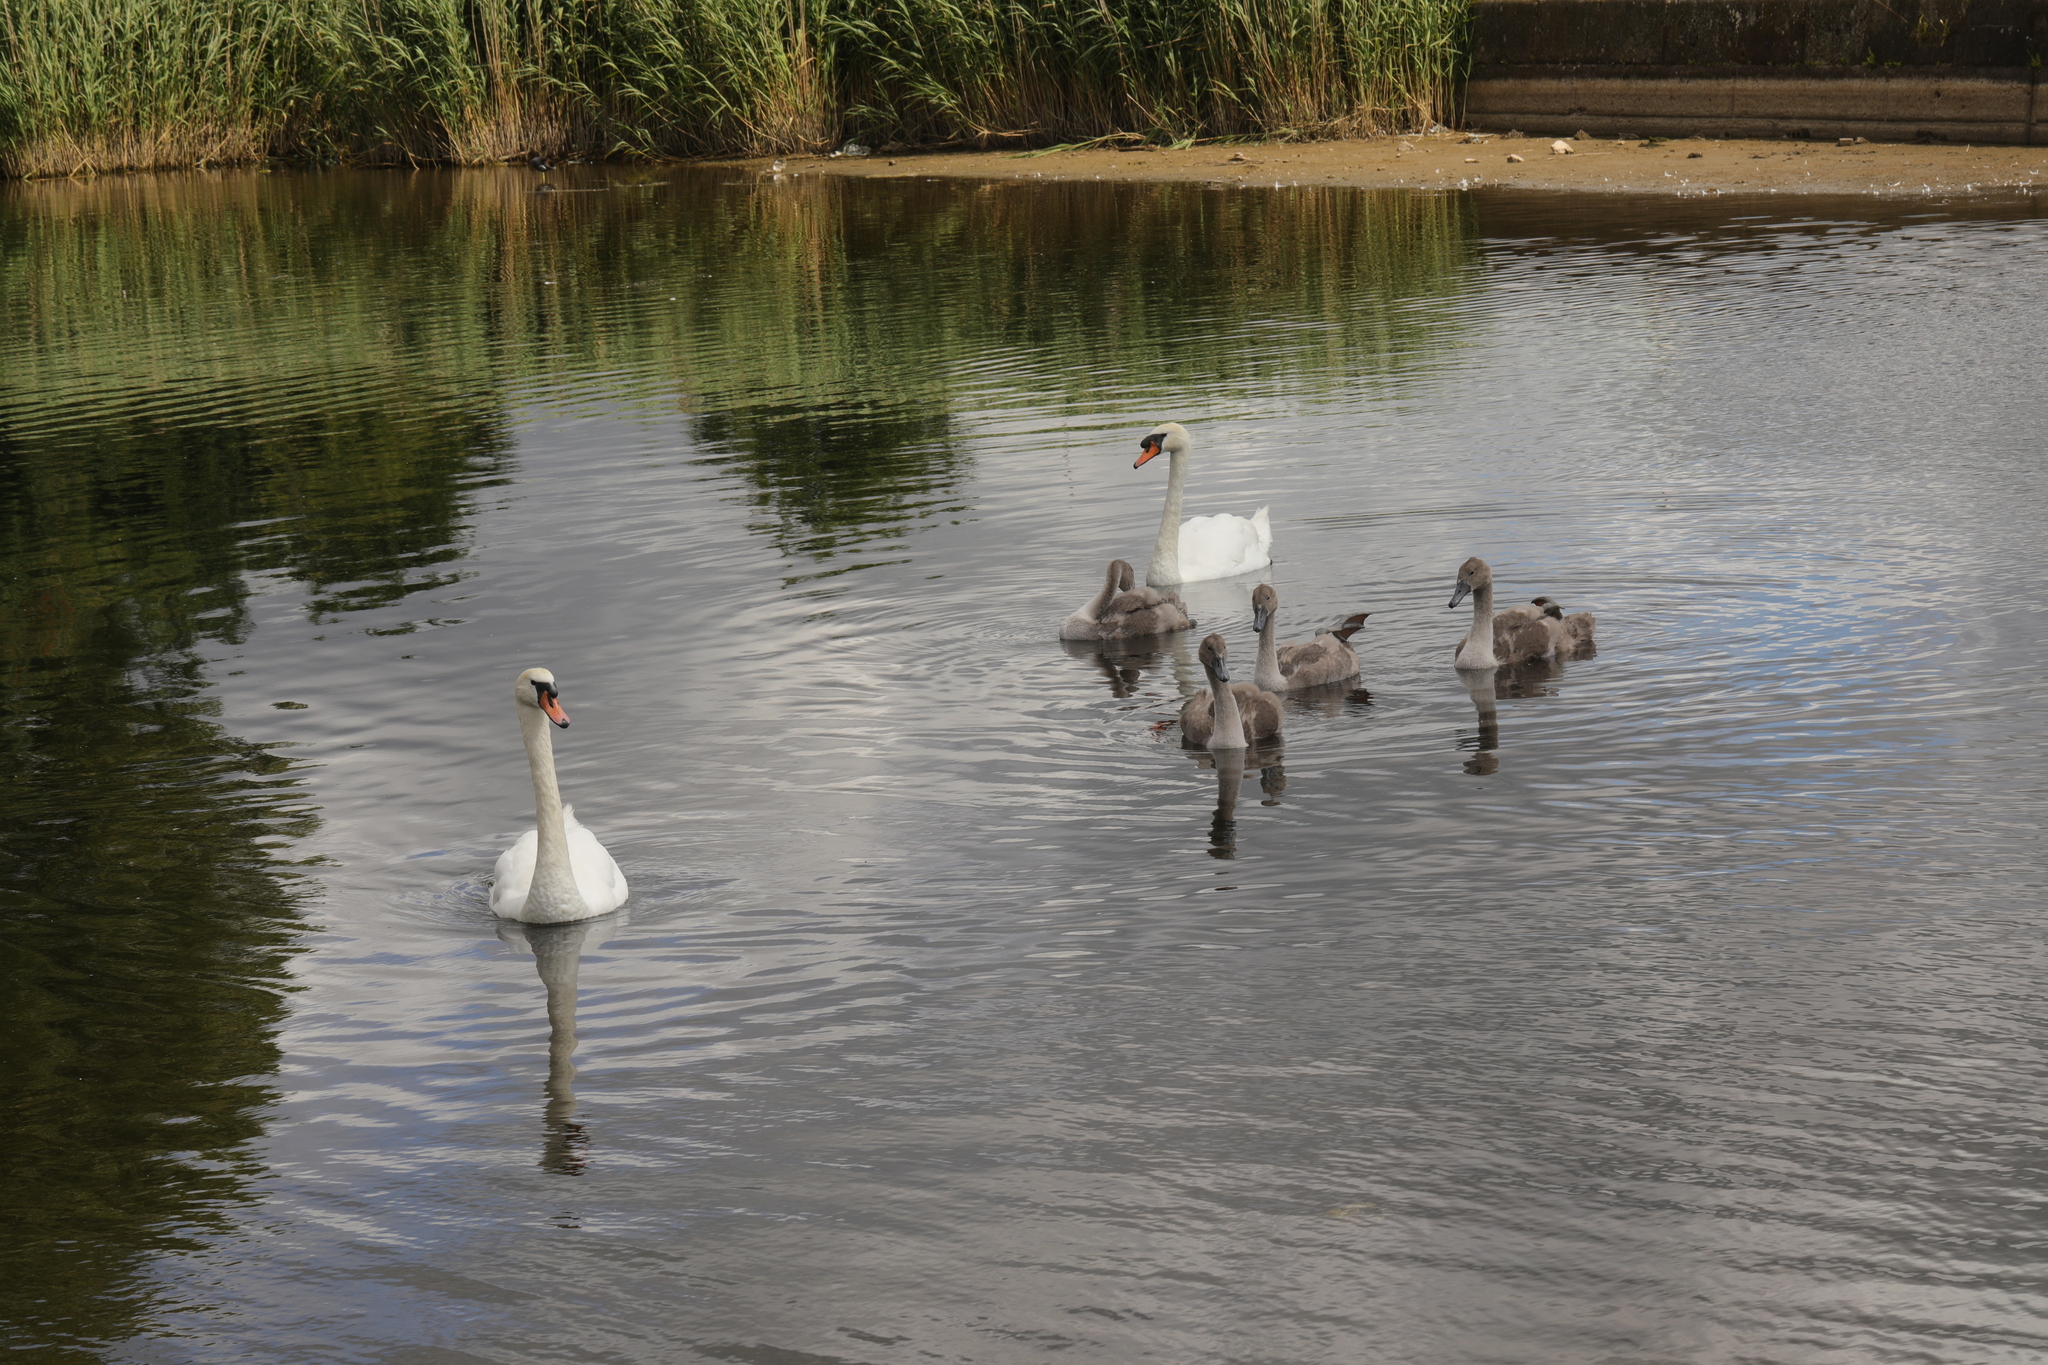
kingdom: Animalia
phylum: Chordata
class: Aves
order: Anseriformes
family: Anatidae
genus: Cygnus
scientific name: Cygnus olor
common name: Mute swan
